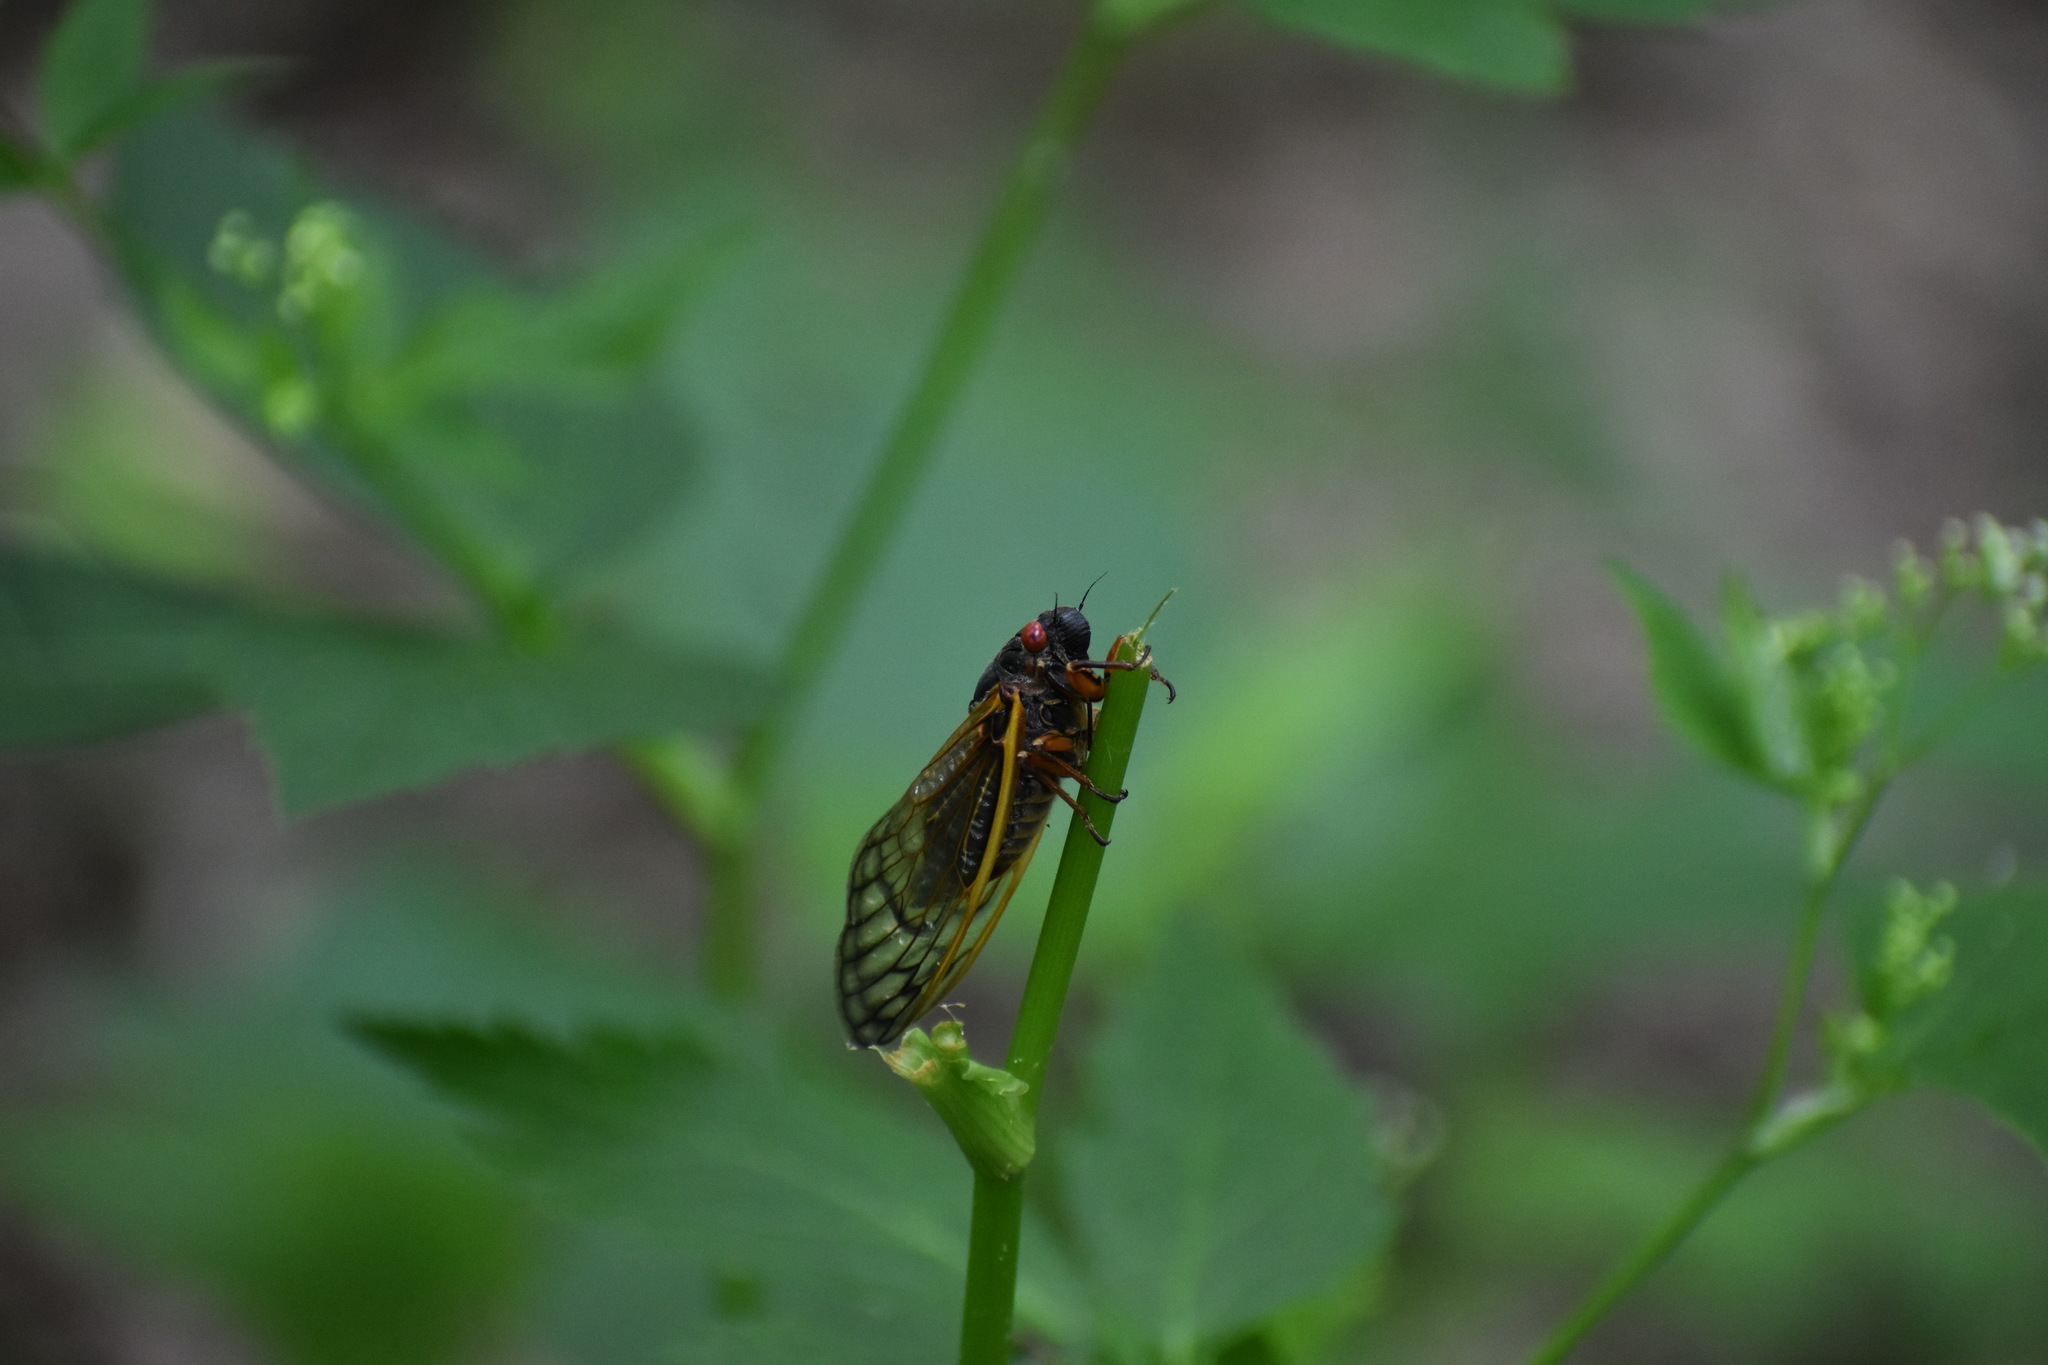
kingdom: Animalia
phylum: Arthropoda
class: Insecta
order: Hemiptera
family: Cicadidae
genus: Magicicada
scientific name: Magicicada septendecim
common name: Periodical cicada
